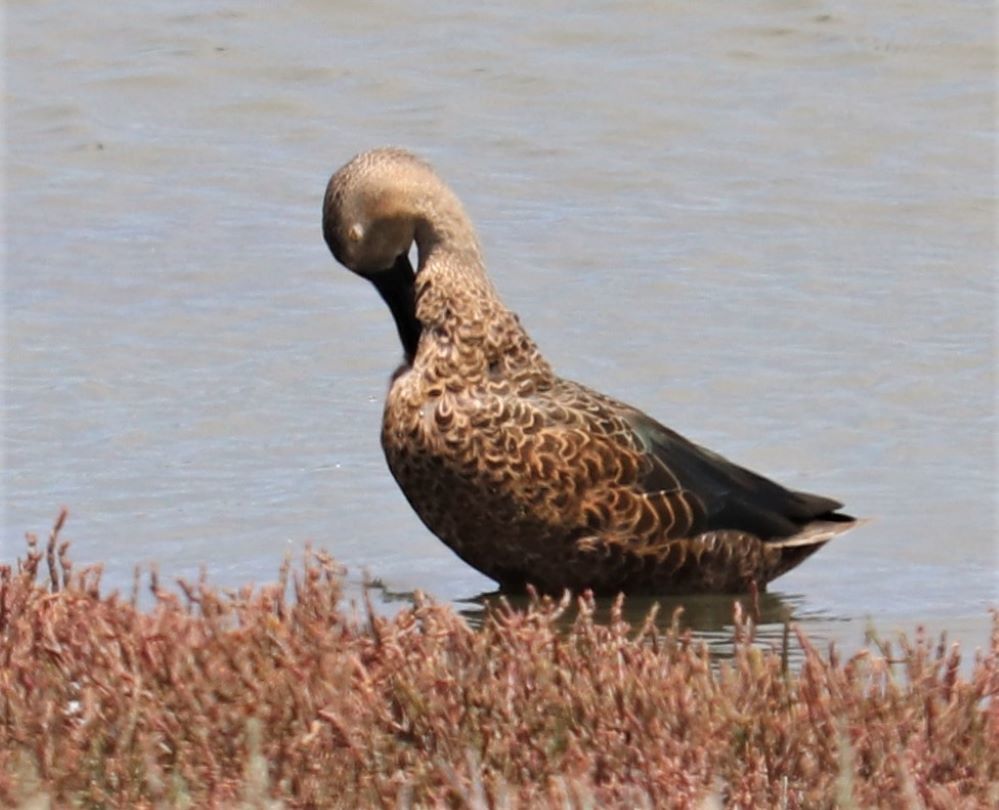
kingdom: Animalia
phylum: Chordata
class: Aves
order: Anseriformes
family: Anatidae
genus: Spatula
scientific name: Spatula smithii
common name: Cape shoveler
